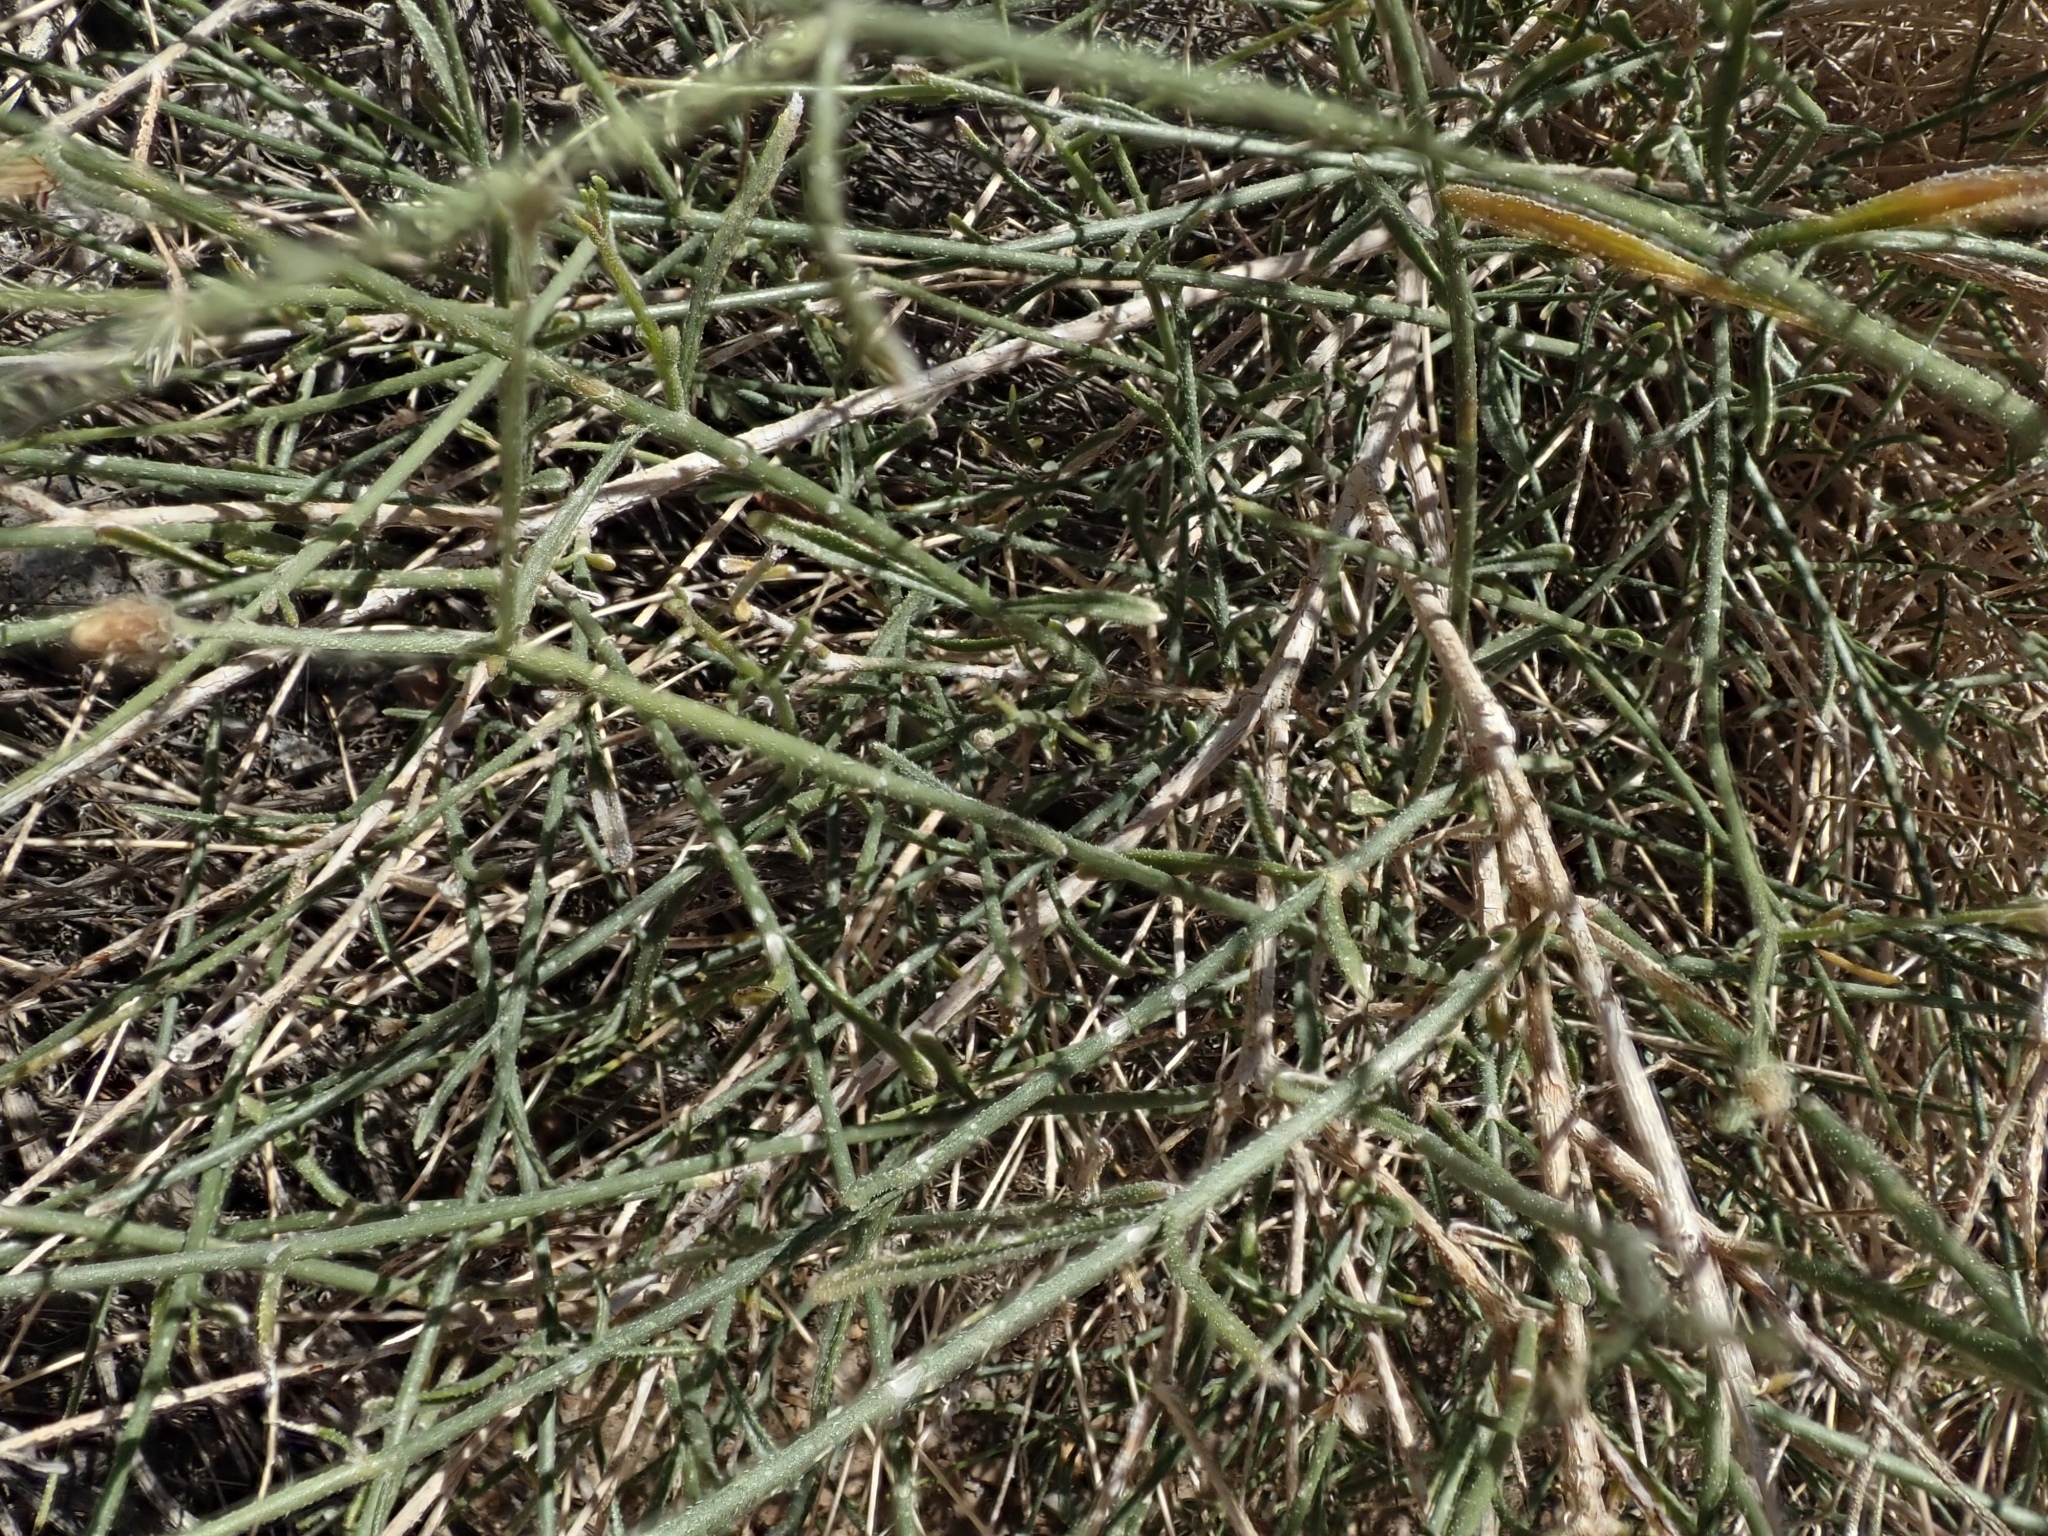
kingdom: Plantae
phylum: Tracheophyta
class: Magnoliopsida
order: Asterales
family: Asteraceae
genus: Bebbia
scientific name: Bebbia juncea
